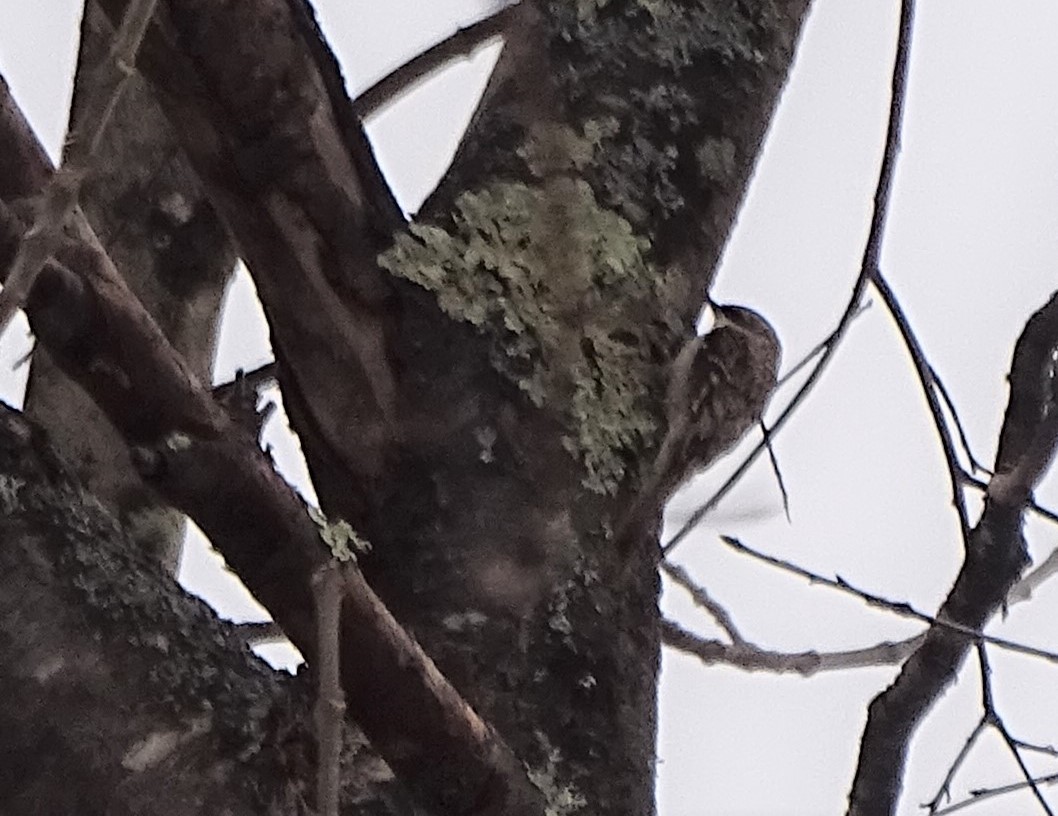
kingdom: Animalia
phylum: Chordata
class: Aves
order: Passeriformes
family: Certhiidae
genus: Certhia
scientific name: Certhia americana
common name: Brown creeper
